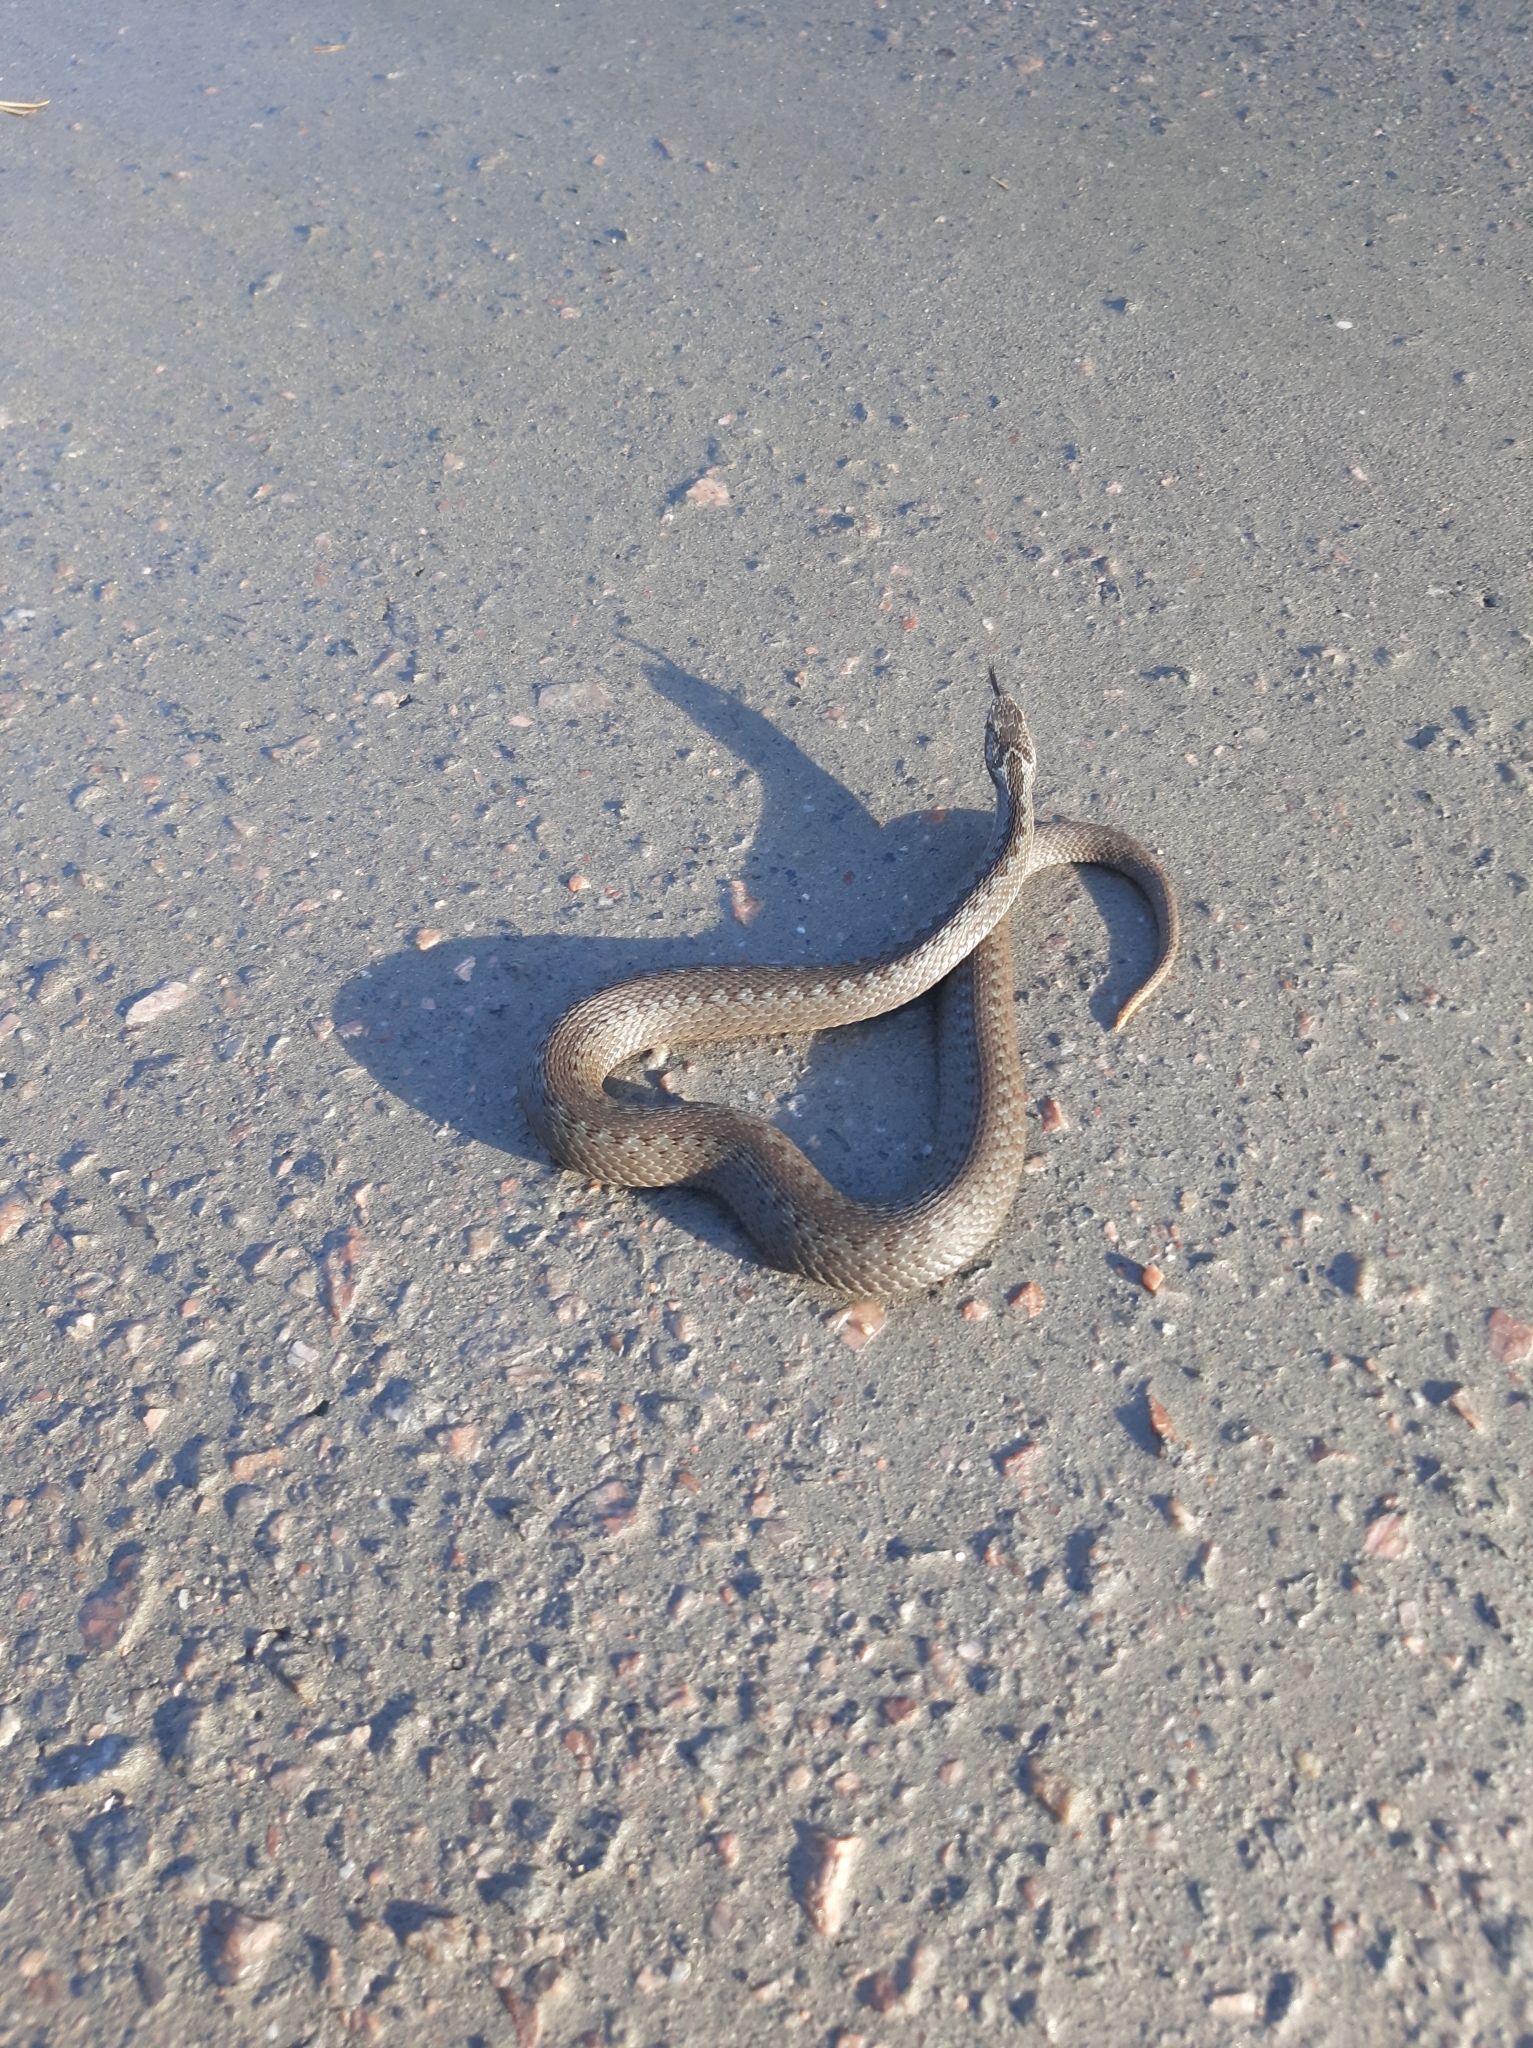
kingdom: Animalia
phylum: Chordata
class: Squamata
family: Viperidae
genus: Vipera
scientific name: Vipera berus
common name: Adder
